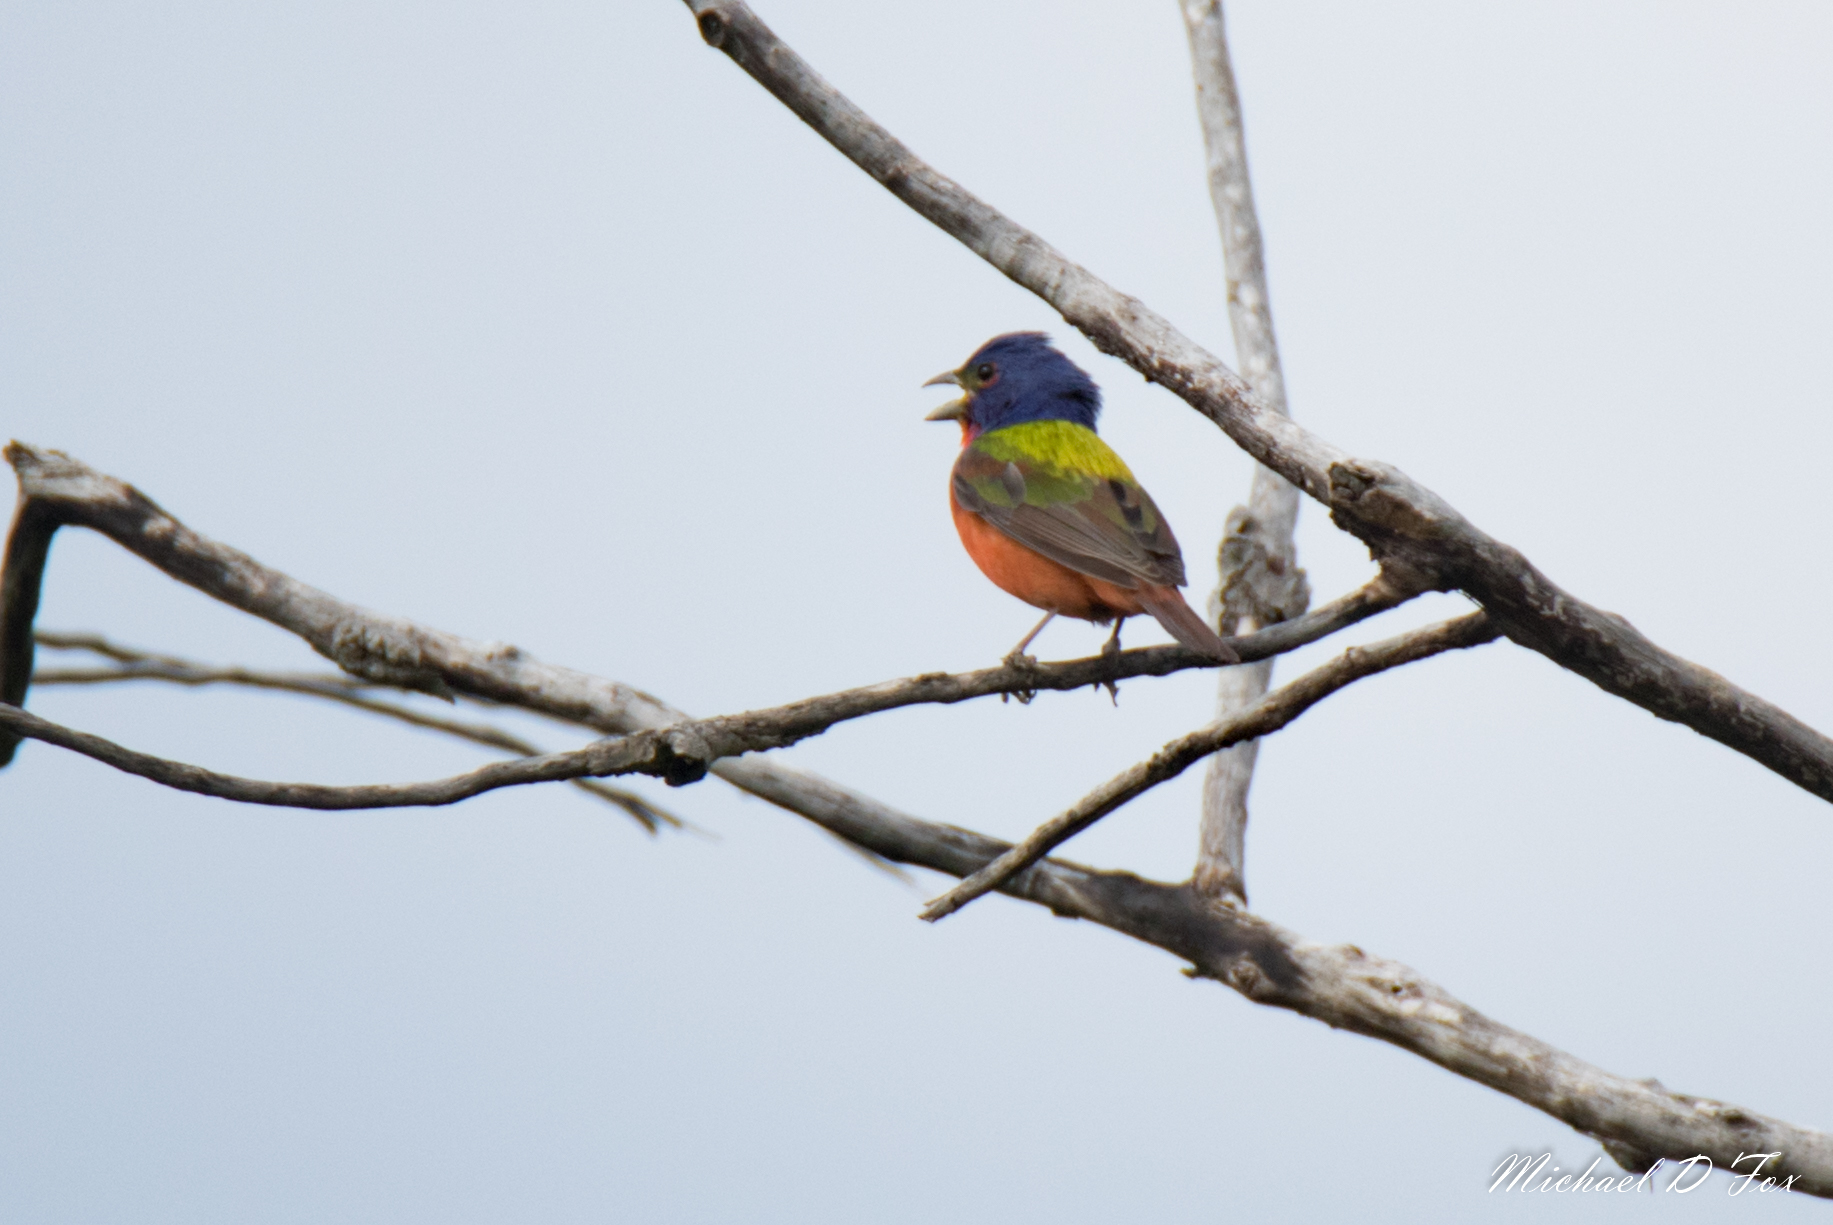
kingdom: Animalia
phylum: Chordata
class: Aves
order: Passeriformes
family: Cardinalidae
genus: Passerina
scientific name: Passerina ciris
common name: Painted bunting
